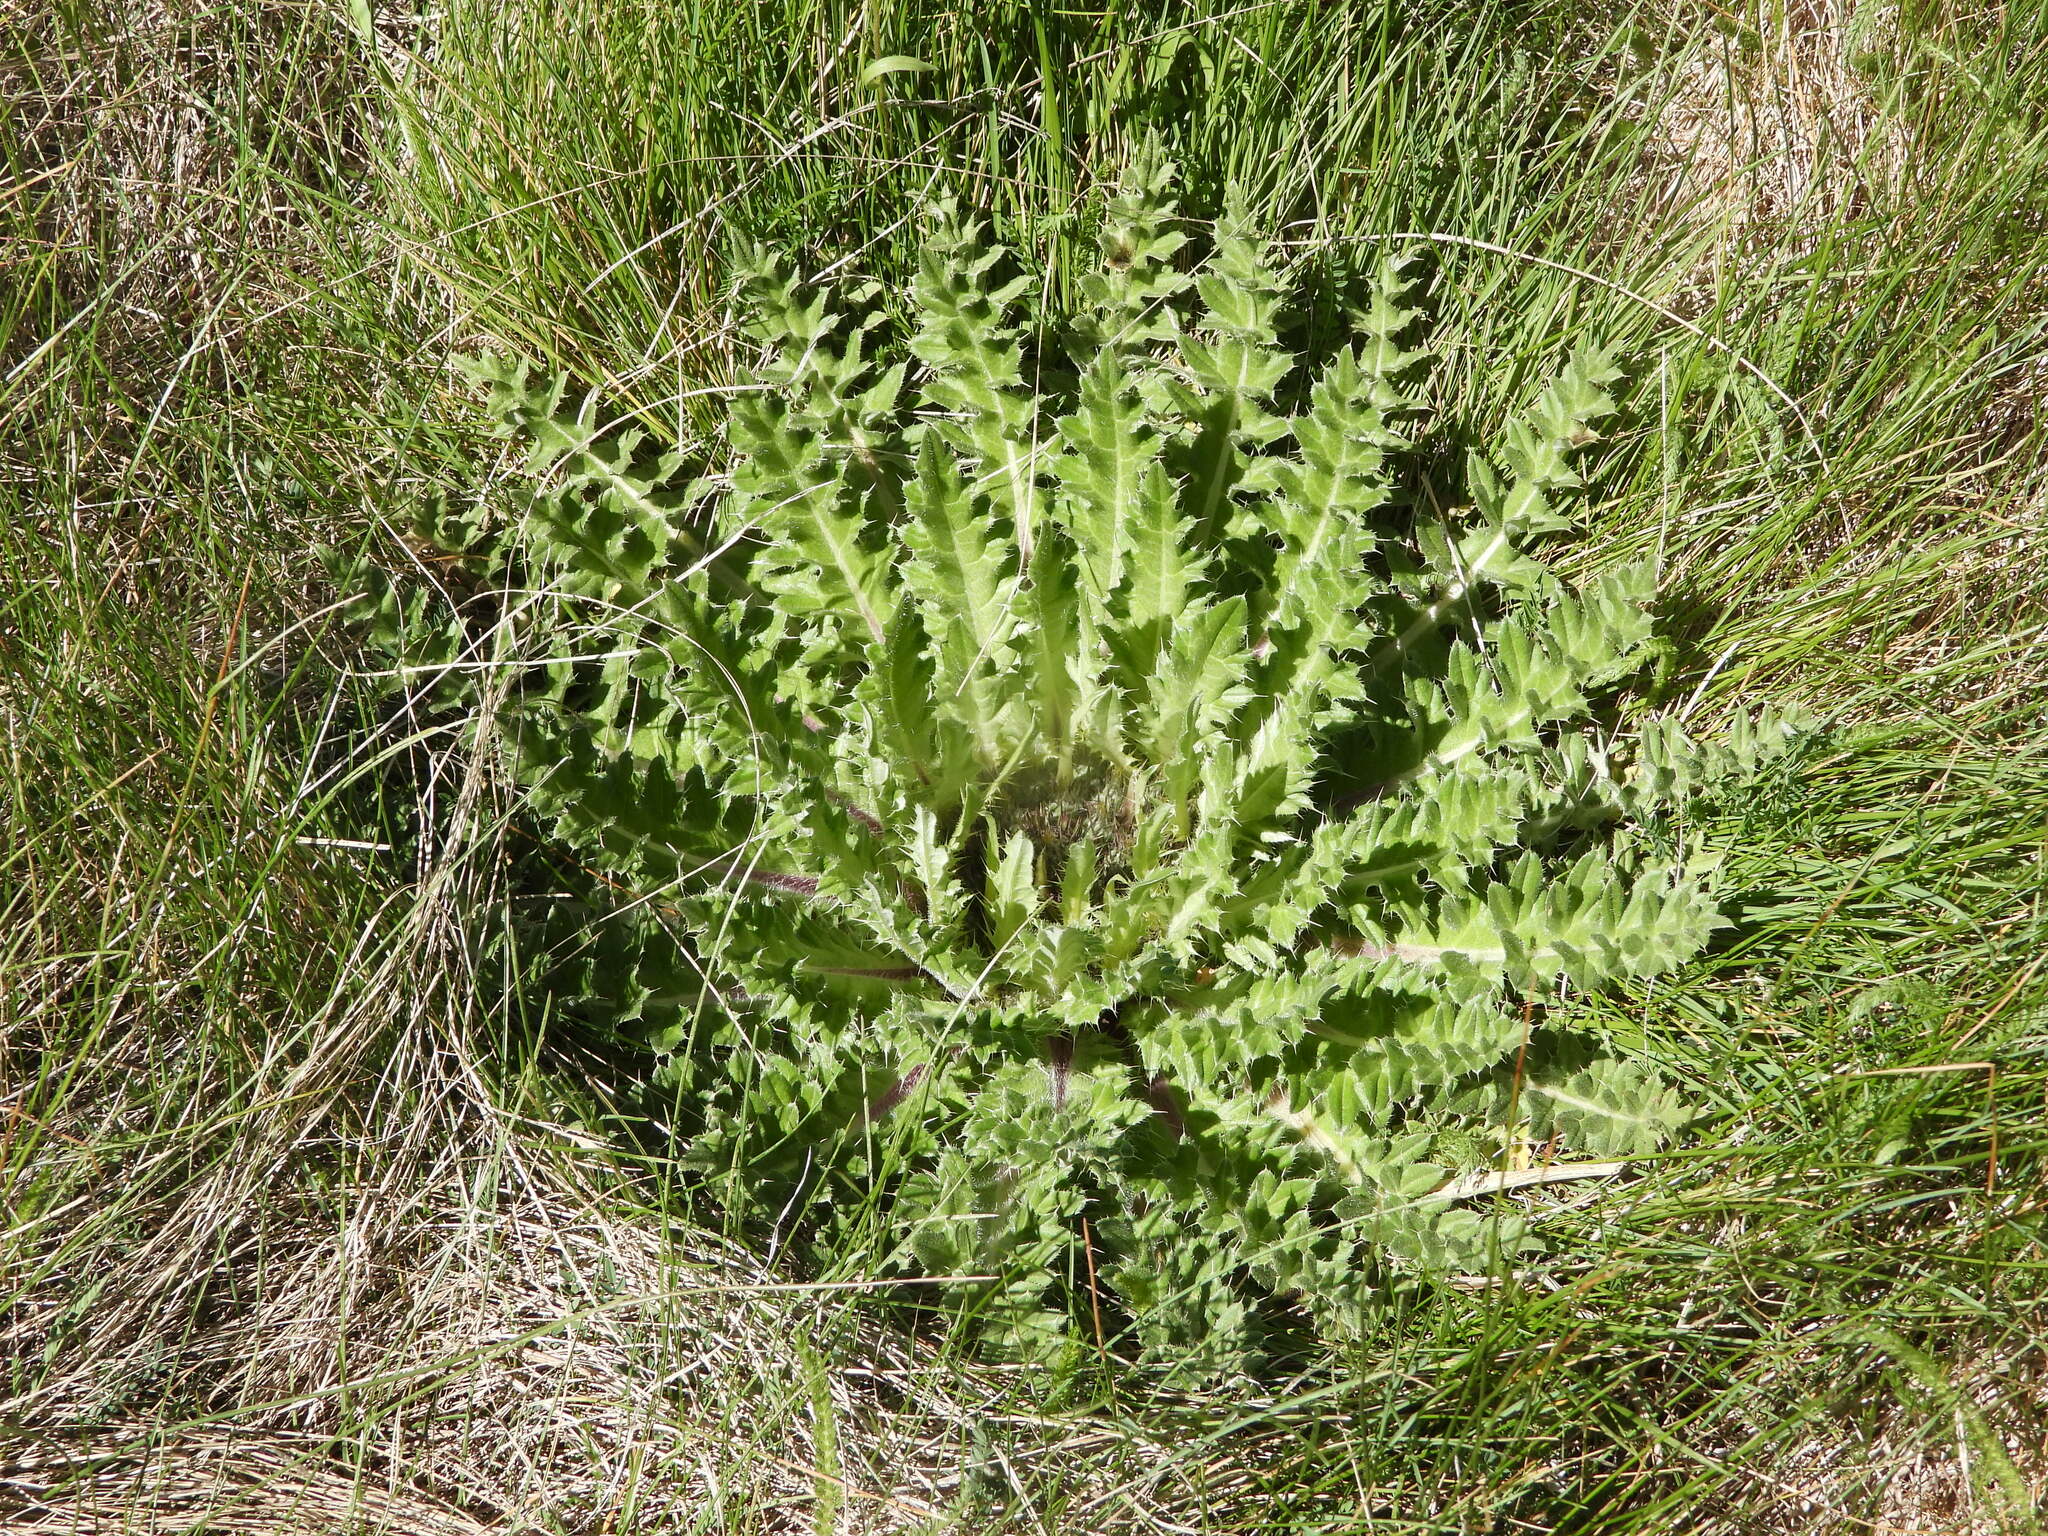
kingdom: Plantae
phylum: Tracheophyta
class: Magnoliopsida
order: Asterales
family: Asteraceae
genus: Cirsium
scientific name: Cirsium tioganum
